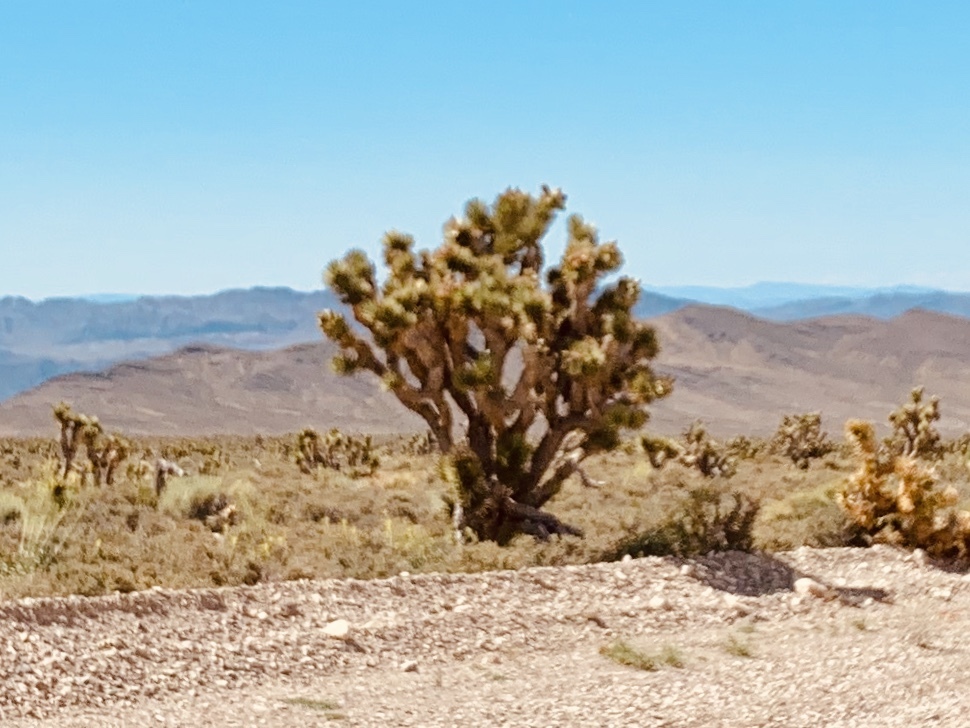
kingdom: Plantae
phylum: Tracheophyta
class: Liliopsida
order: Asparagales
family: Asparagaceae
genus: Yucca
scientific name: Yucca brevifolia
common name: Joshua tree
